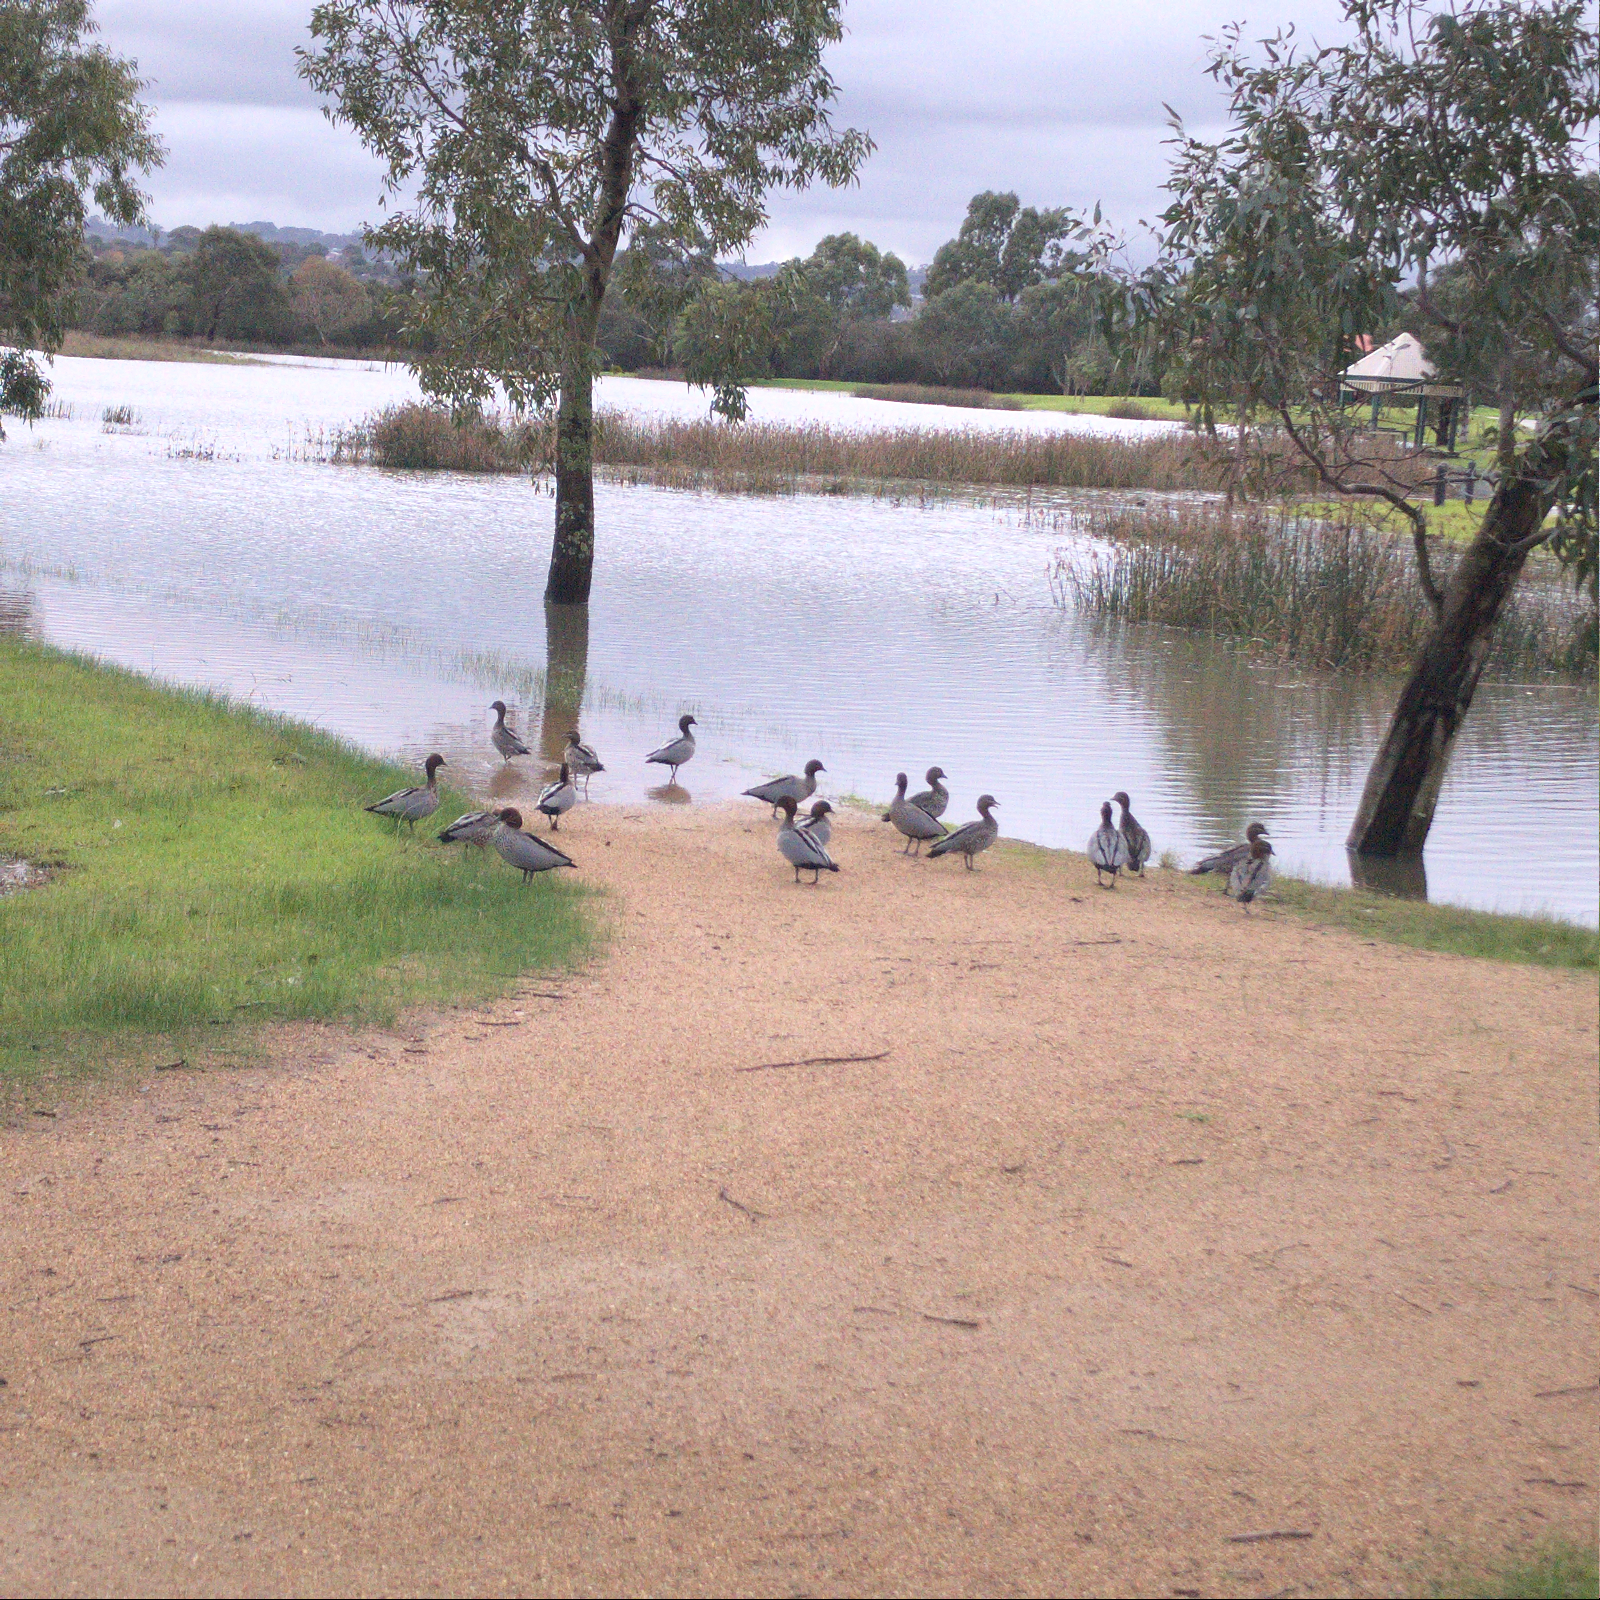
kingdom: Animalia
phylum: Chordata
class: Aves
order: Anseriformes
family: Anatidae
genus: Chenonetta
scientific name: Chenonetta jubata
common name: Maned duck
